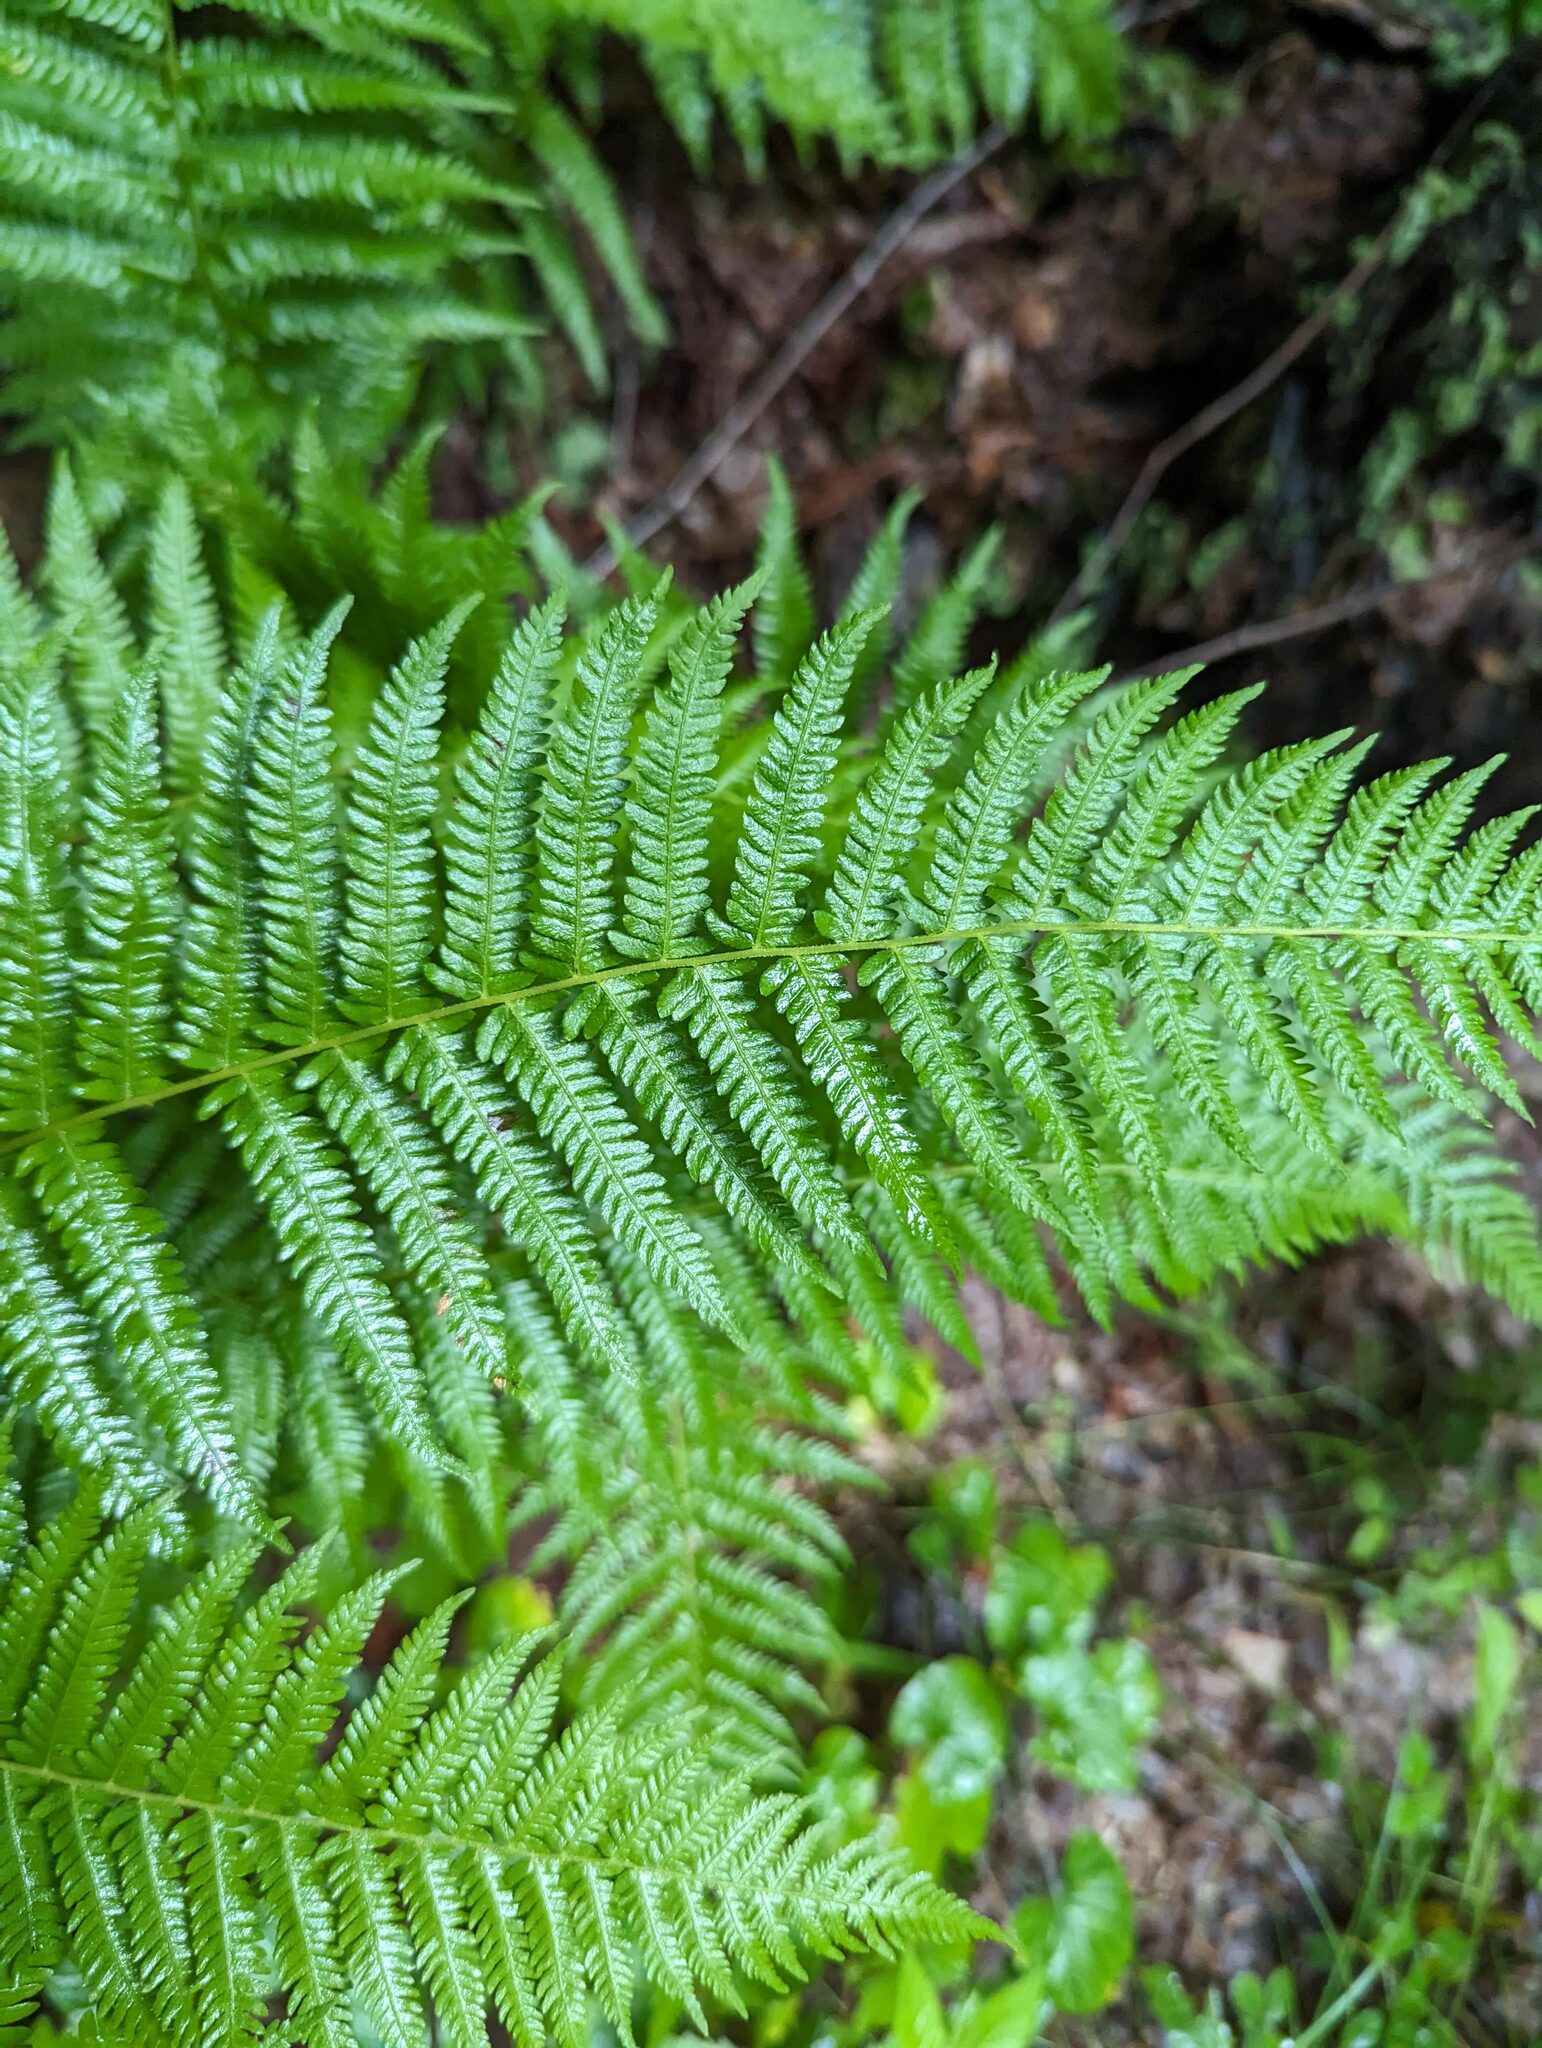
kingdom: Plantae
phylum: Tracheophyta
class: Polypodiopsida
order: Polypodiales
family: Thelypteridaceae
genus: Amauropelta
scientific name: Amauropelta noveboracensis
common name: New york fern
